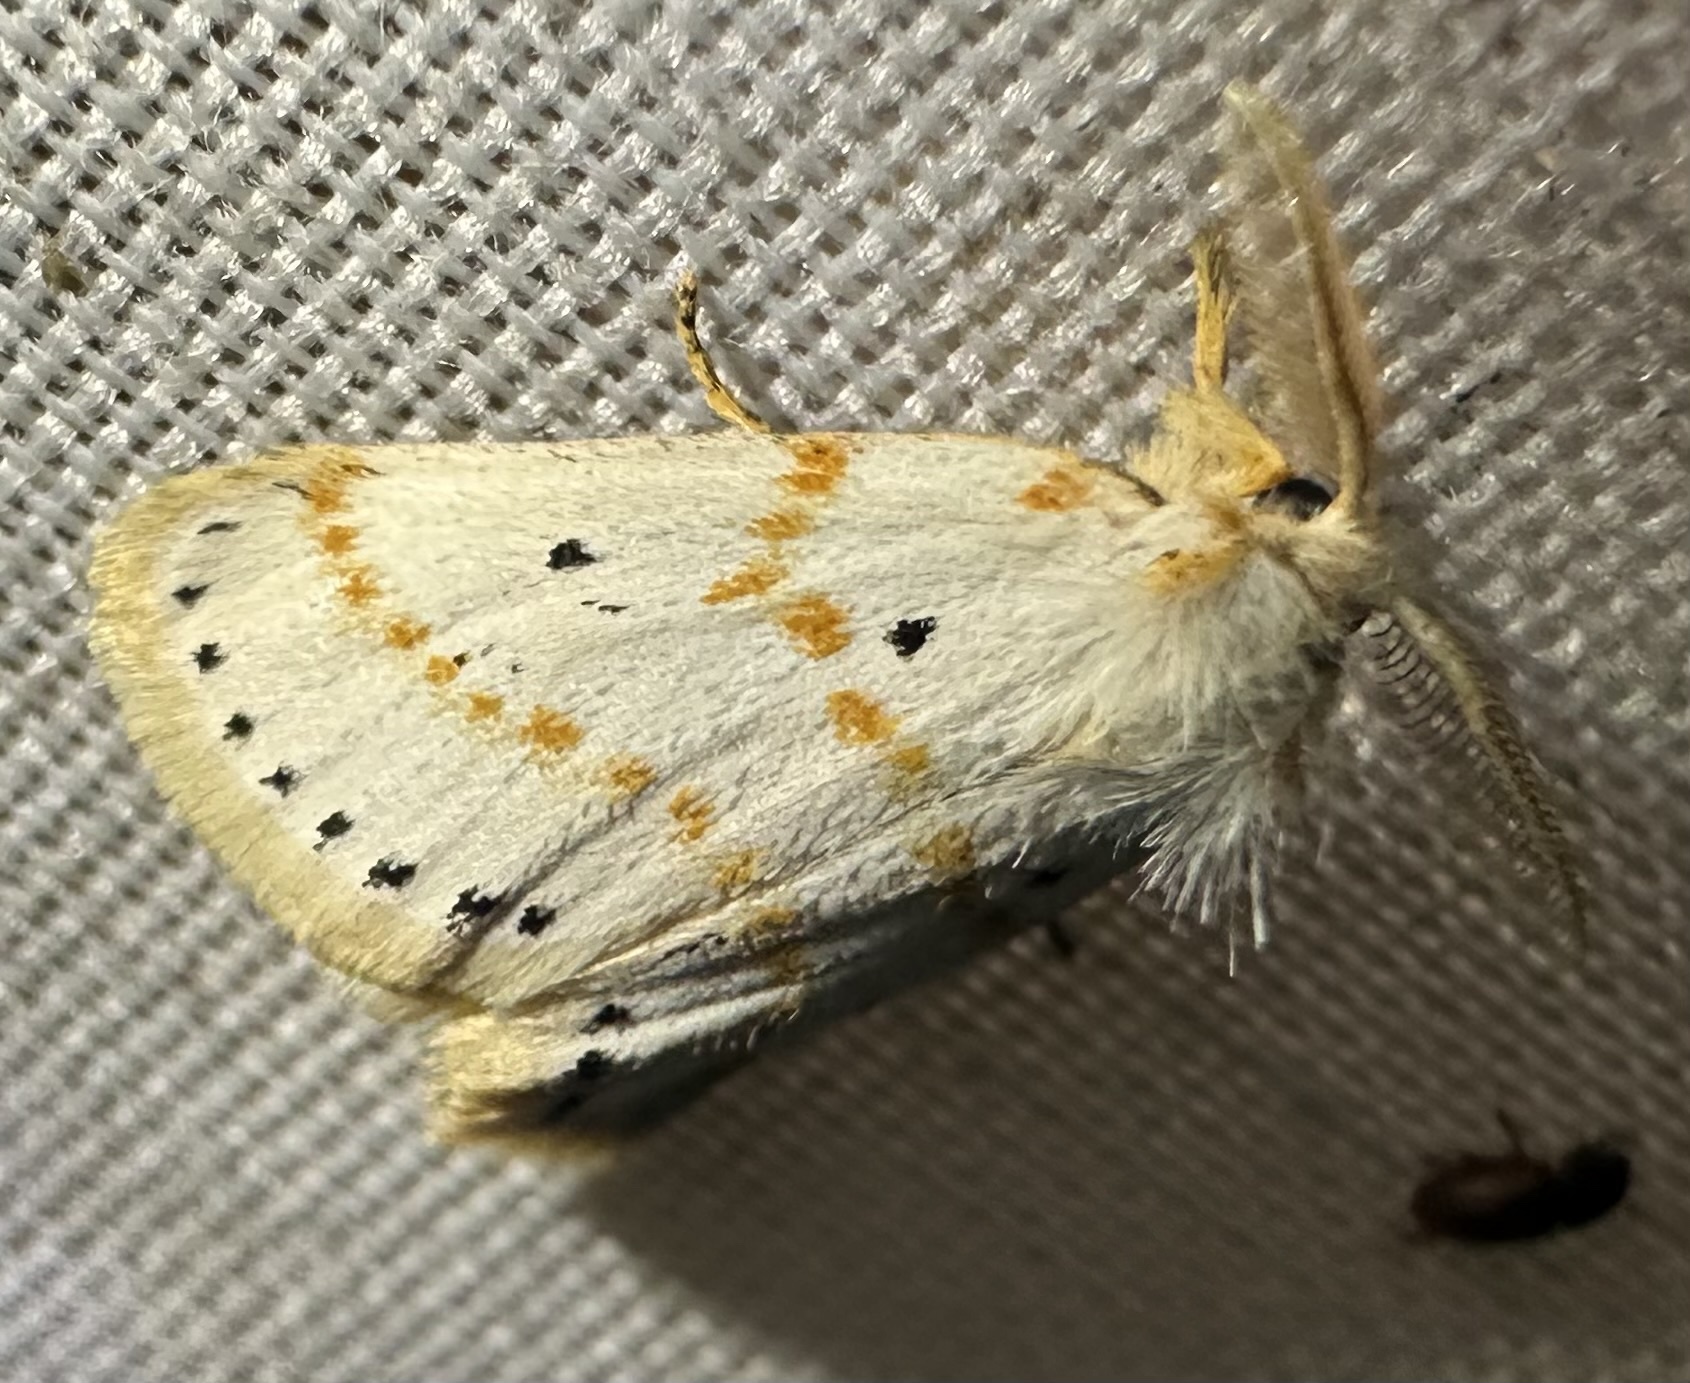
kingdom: Animalia
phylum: Arthropoda
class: Insecta
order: Lepidoptera
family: Erebidae
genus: Lacipa
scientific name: Lacipa gracilis
